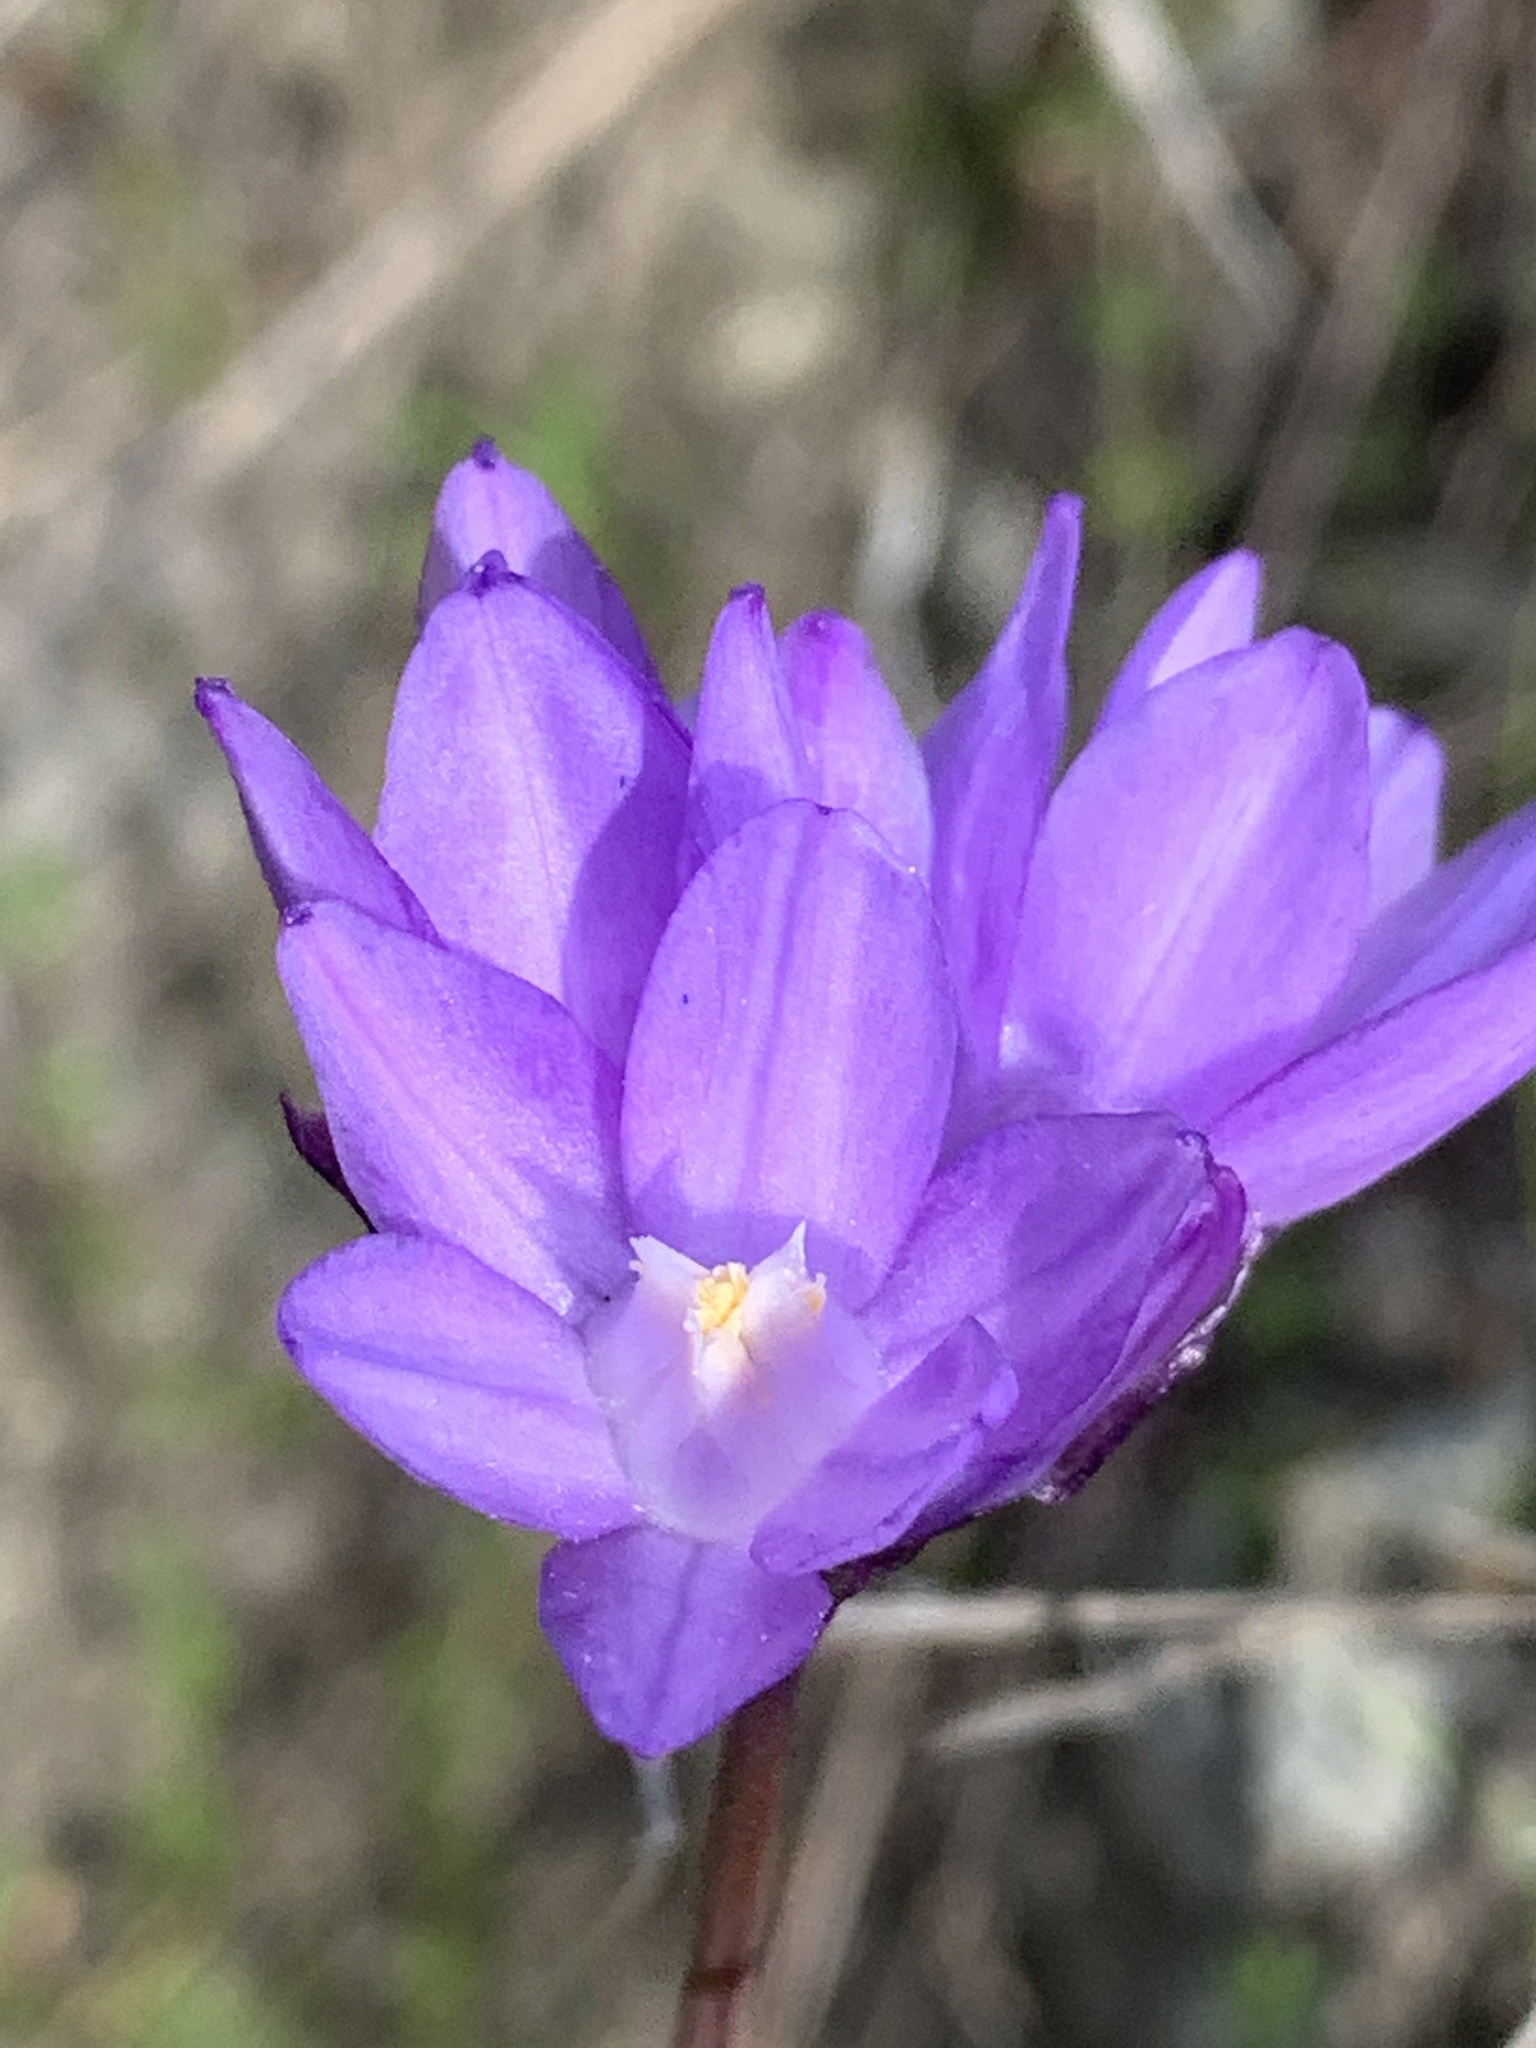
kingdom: Plantae
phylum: Tracheophyta
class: Liliopsida
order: Asparagales
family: Asparagaceae
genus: Dipterostemon
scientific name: Dipterostemon capitatus
